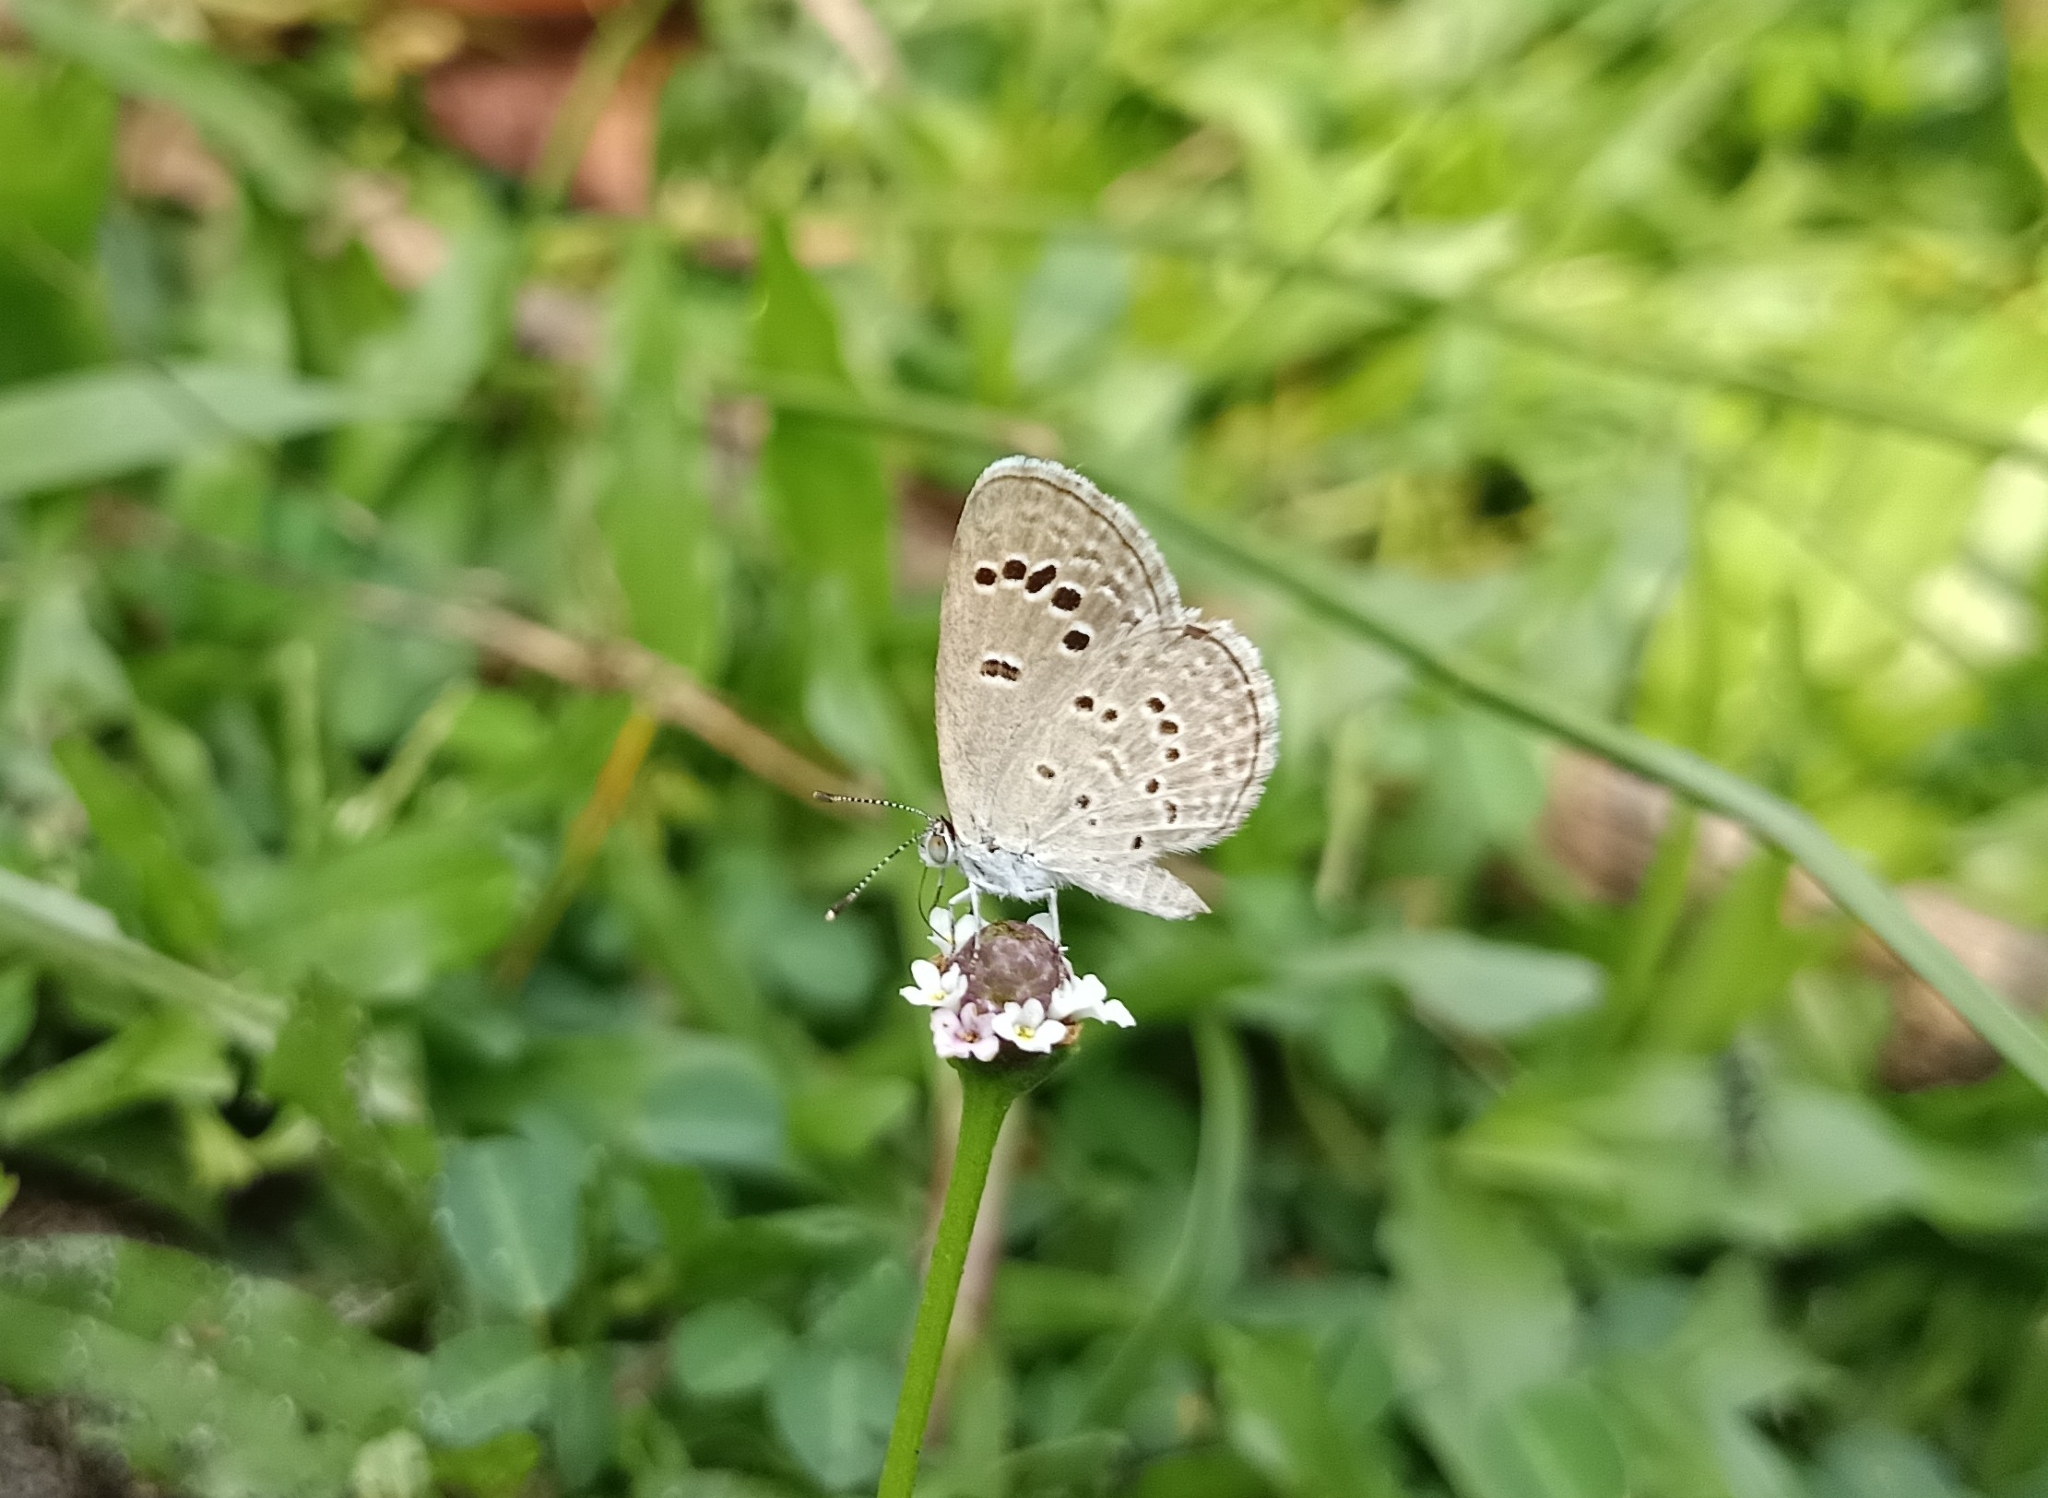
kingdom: Animalia
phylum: Arthropoda
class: Insecta
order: Lepidoptera
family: Lycaenidae
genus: Zizina
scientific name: Zizina otis
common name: Lesser grass blue
